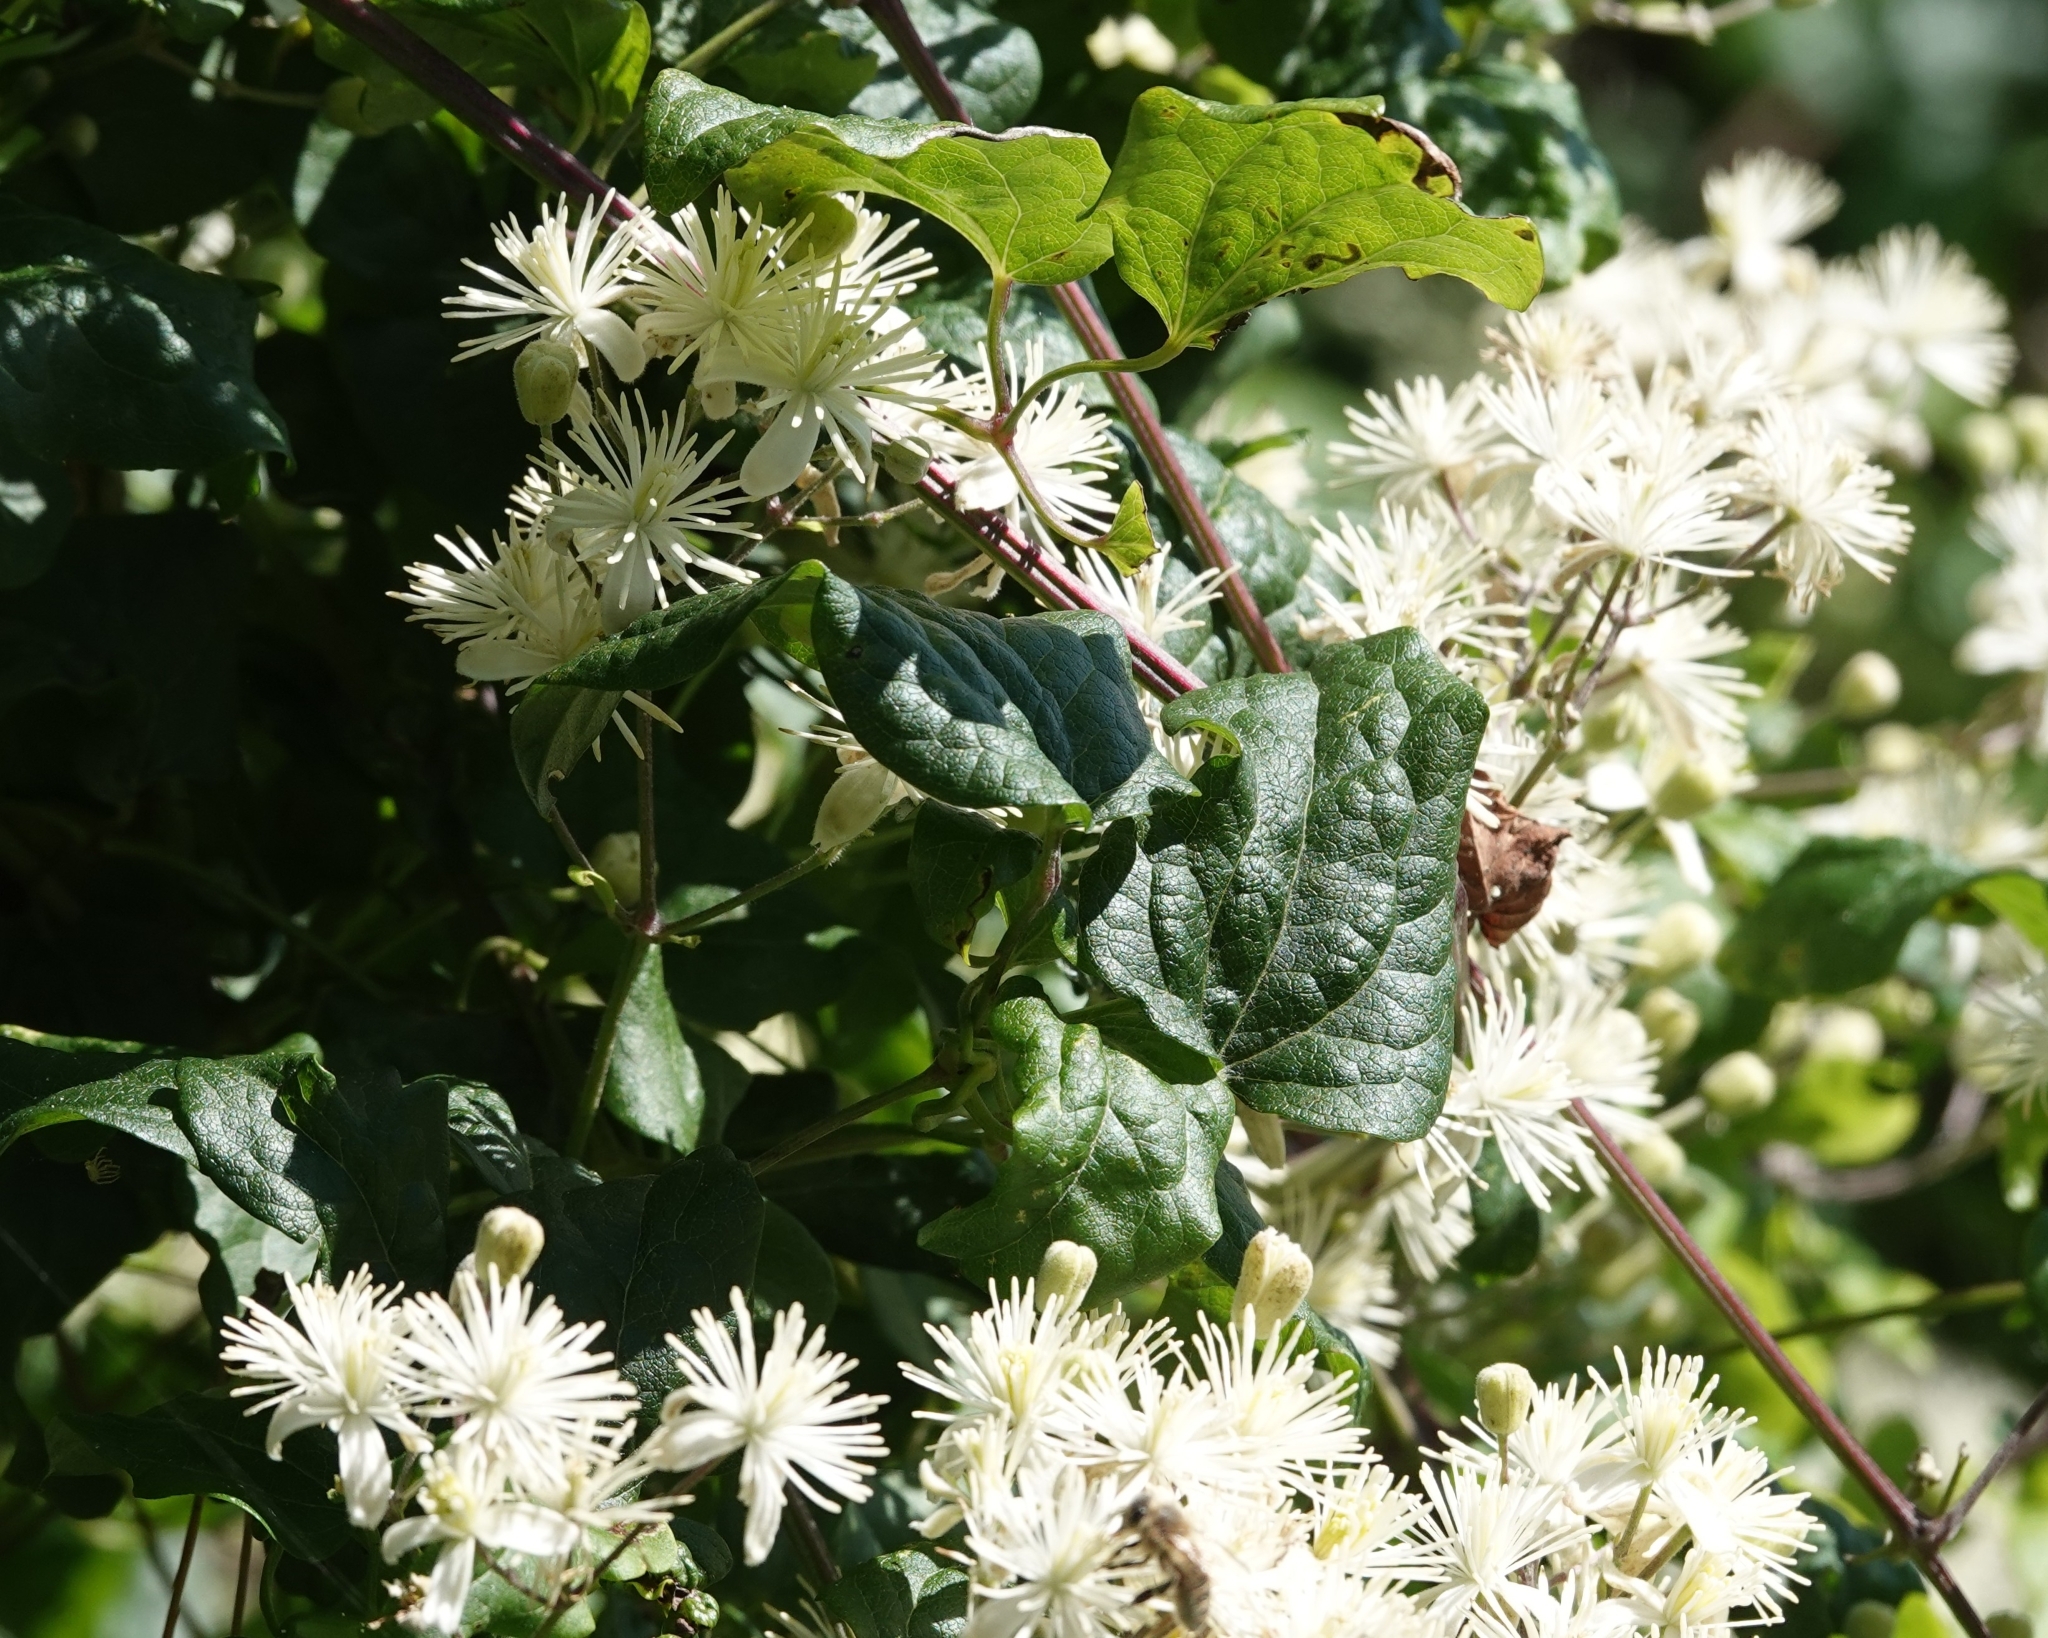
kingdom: Plantae
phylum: Tracheophyta
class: Magnoliopsida
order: Ranunculales
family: Ranunculaceae
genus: Clematis
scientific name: Clematis vitalba
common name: Evergreen clematis
